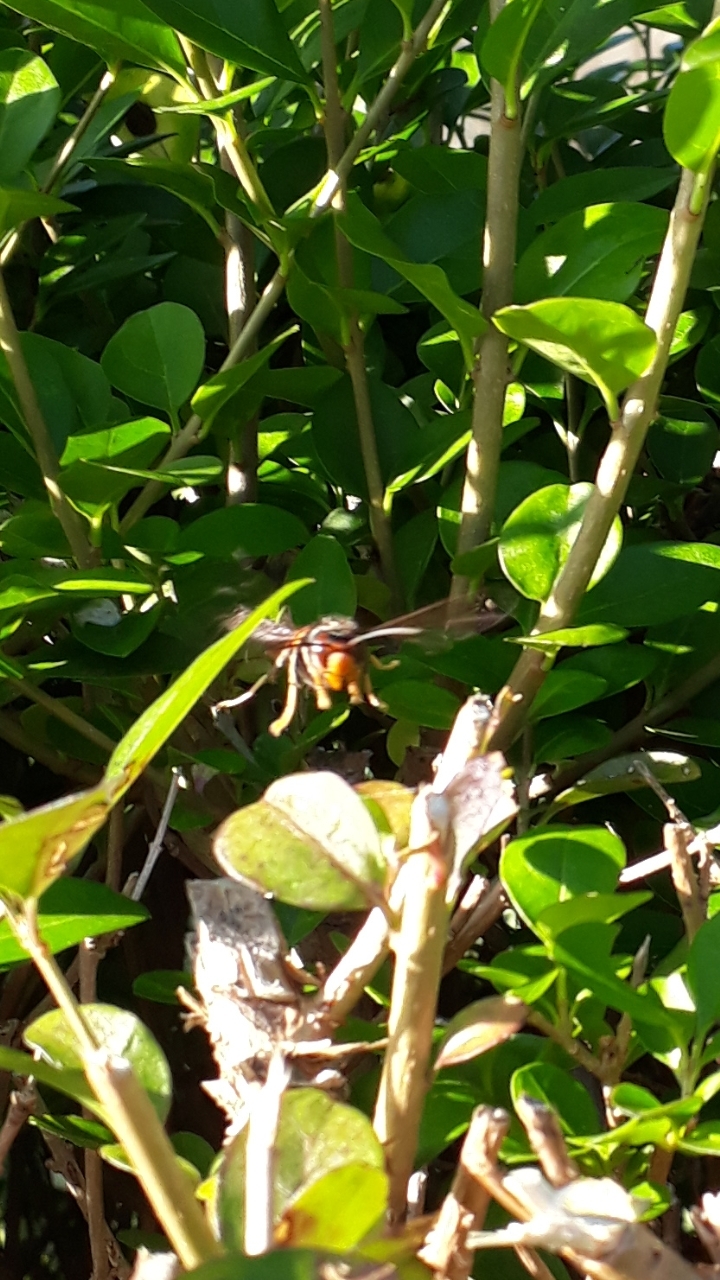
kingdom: Animalia
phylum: Arthropoda
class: Insecta
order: Hymenoptera
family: Vespidae
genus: Vespa
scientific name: Vespa velutina
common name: Asian hornet
